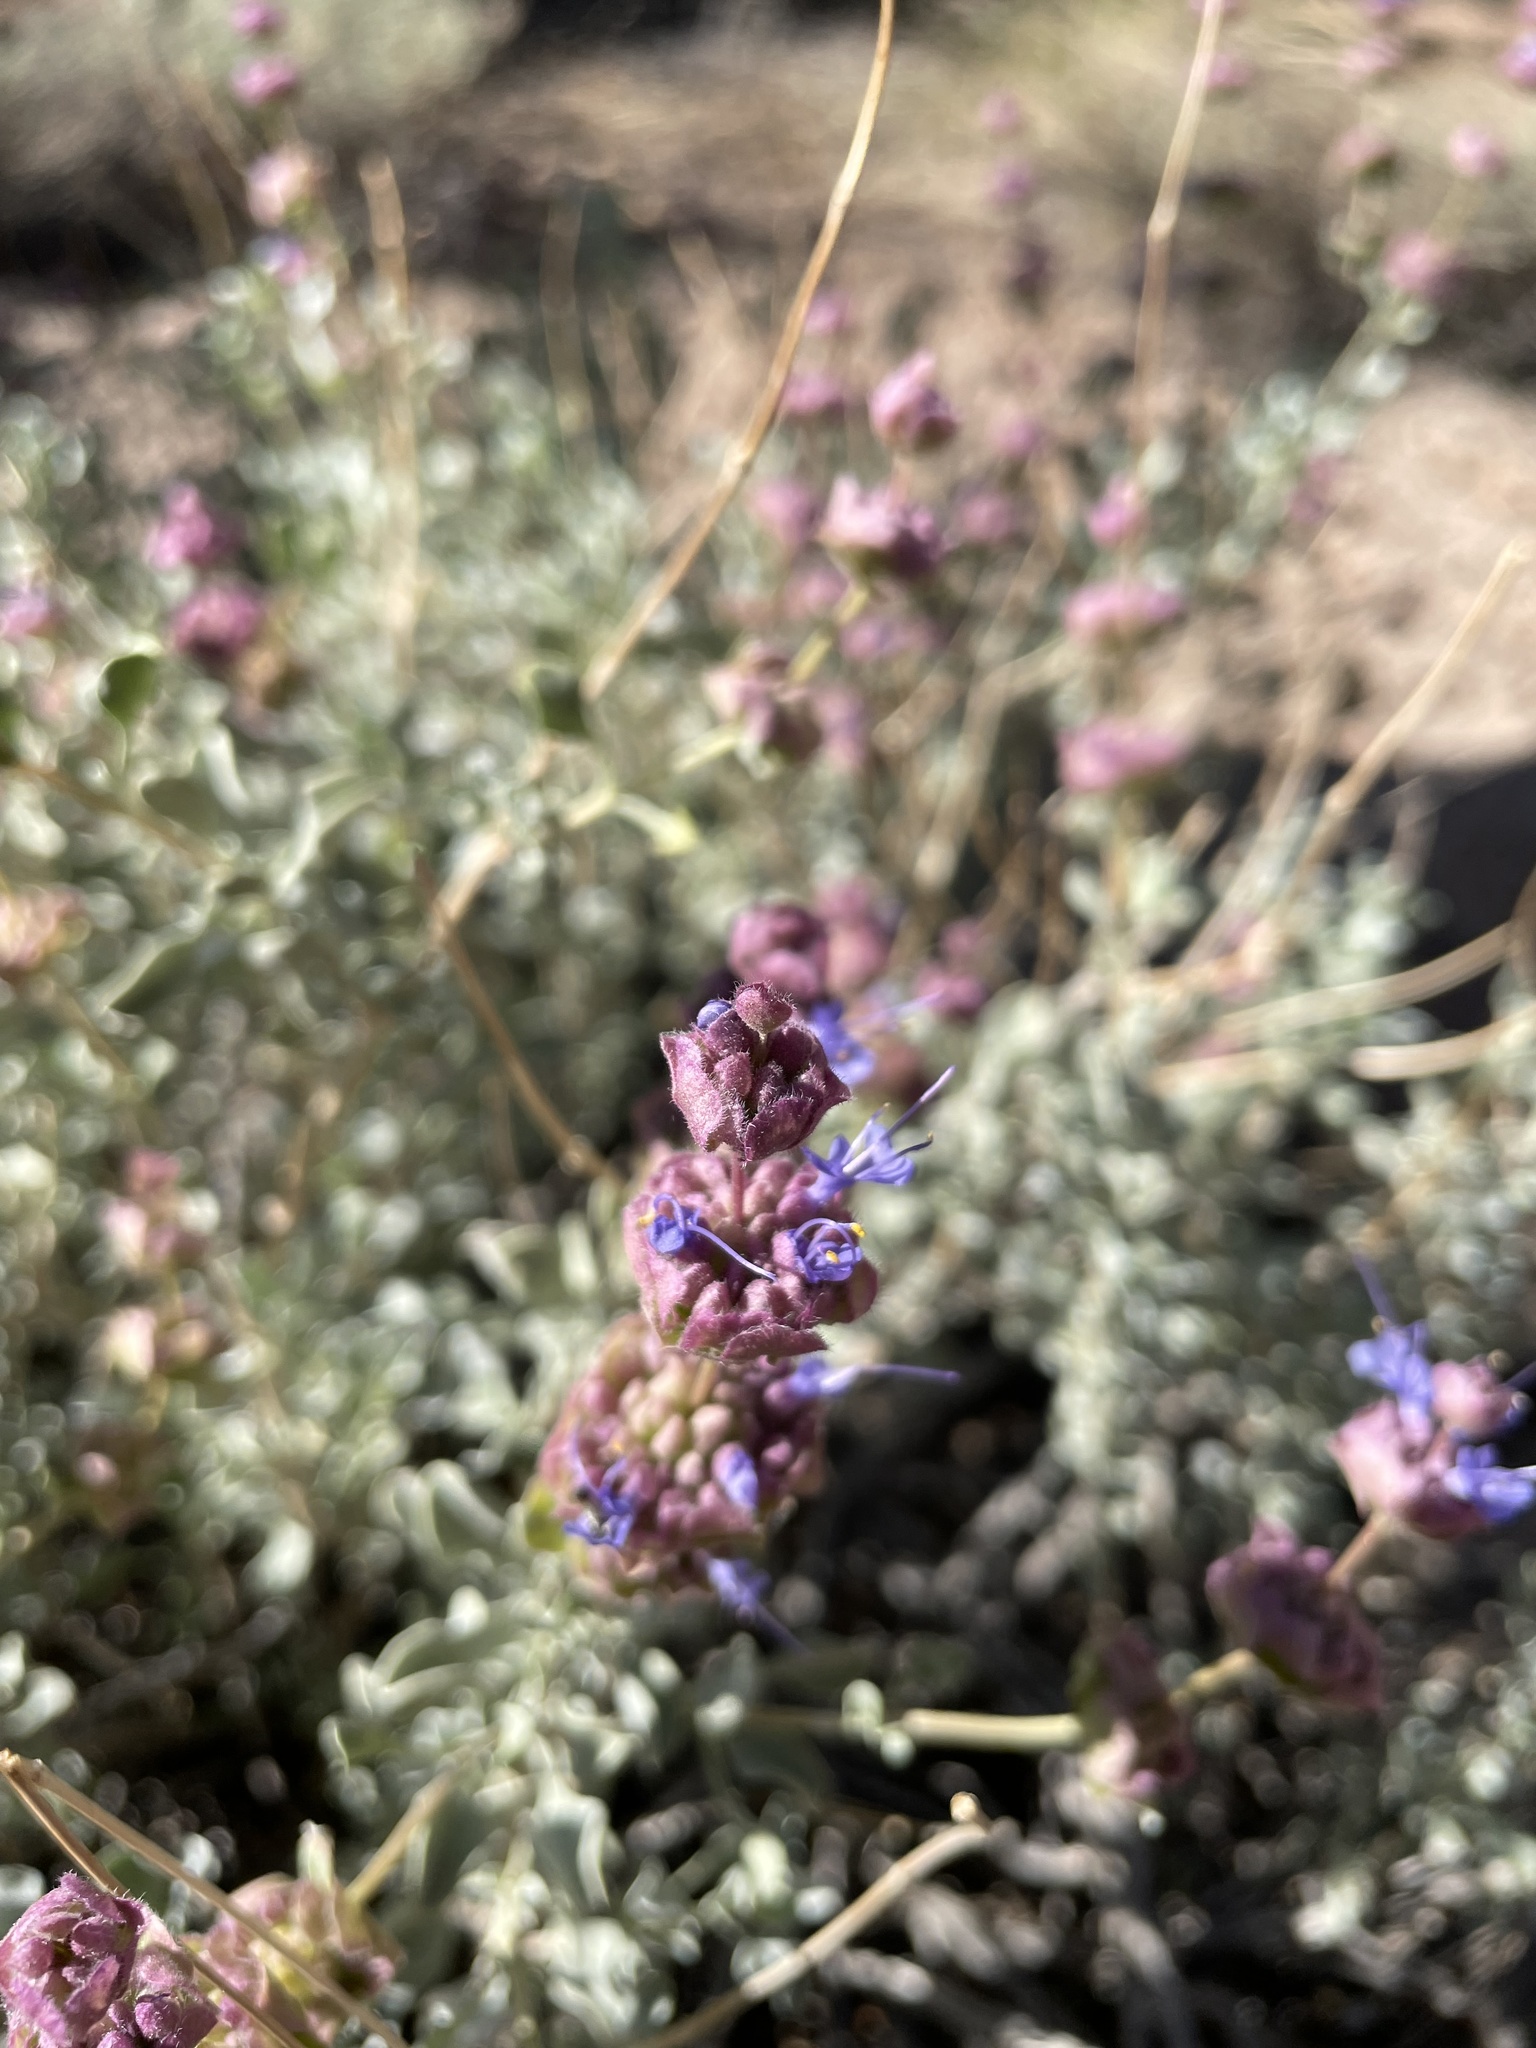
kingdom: Plantae
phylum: Tracheophyta
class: Magnoliopsida
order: Lamiales
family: Lamiaceae
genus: Salvia
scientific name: Salvia dorrii
